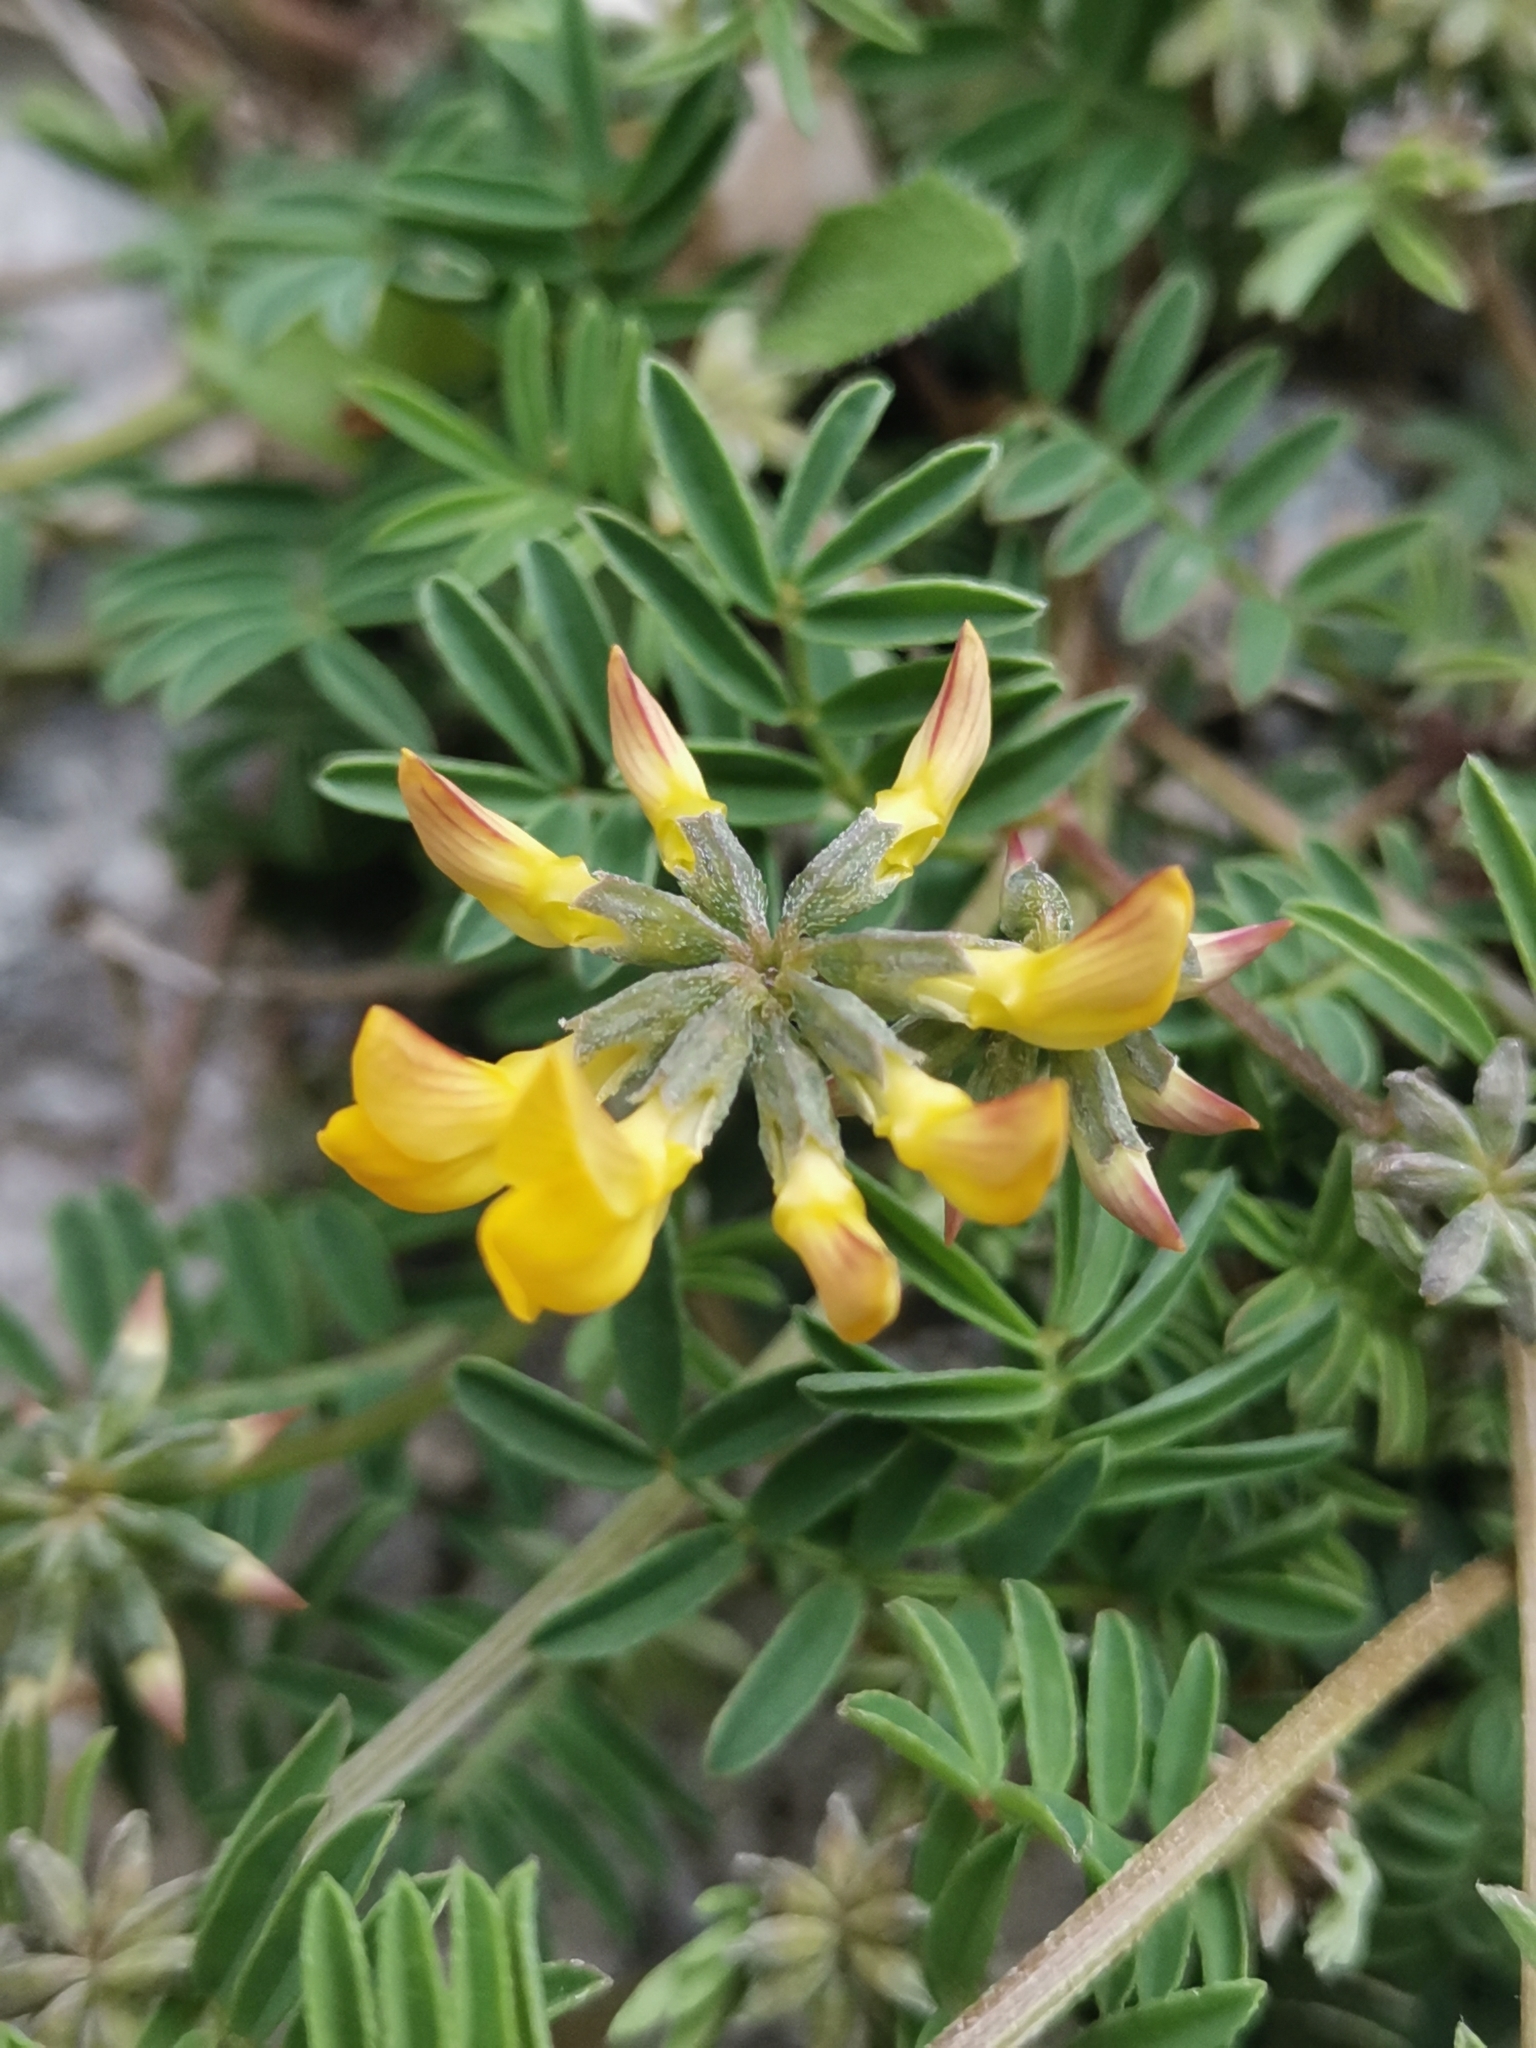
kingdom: Plantae
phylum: Tracheophyta
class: Magnoliopsida
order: Fabales
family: Fabaceae
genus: Hippocrepis
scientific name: Hippocrepis comosa
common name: Horseshoe vetch
